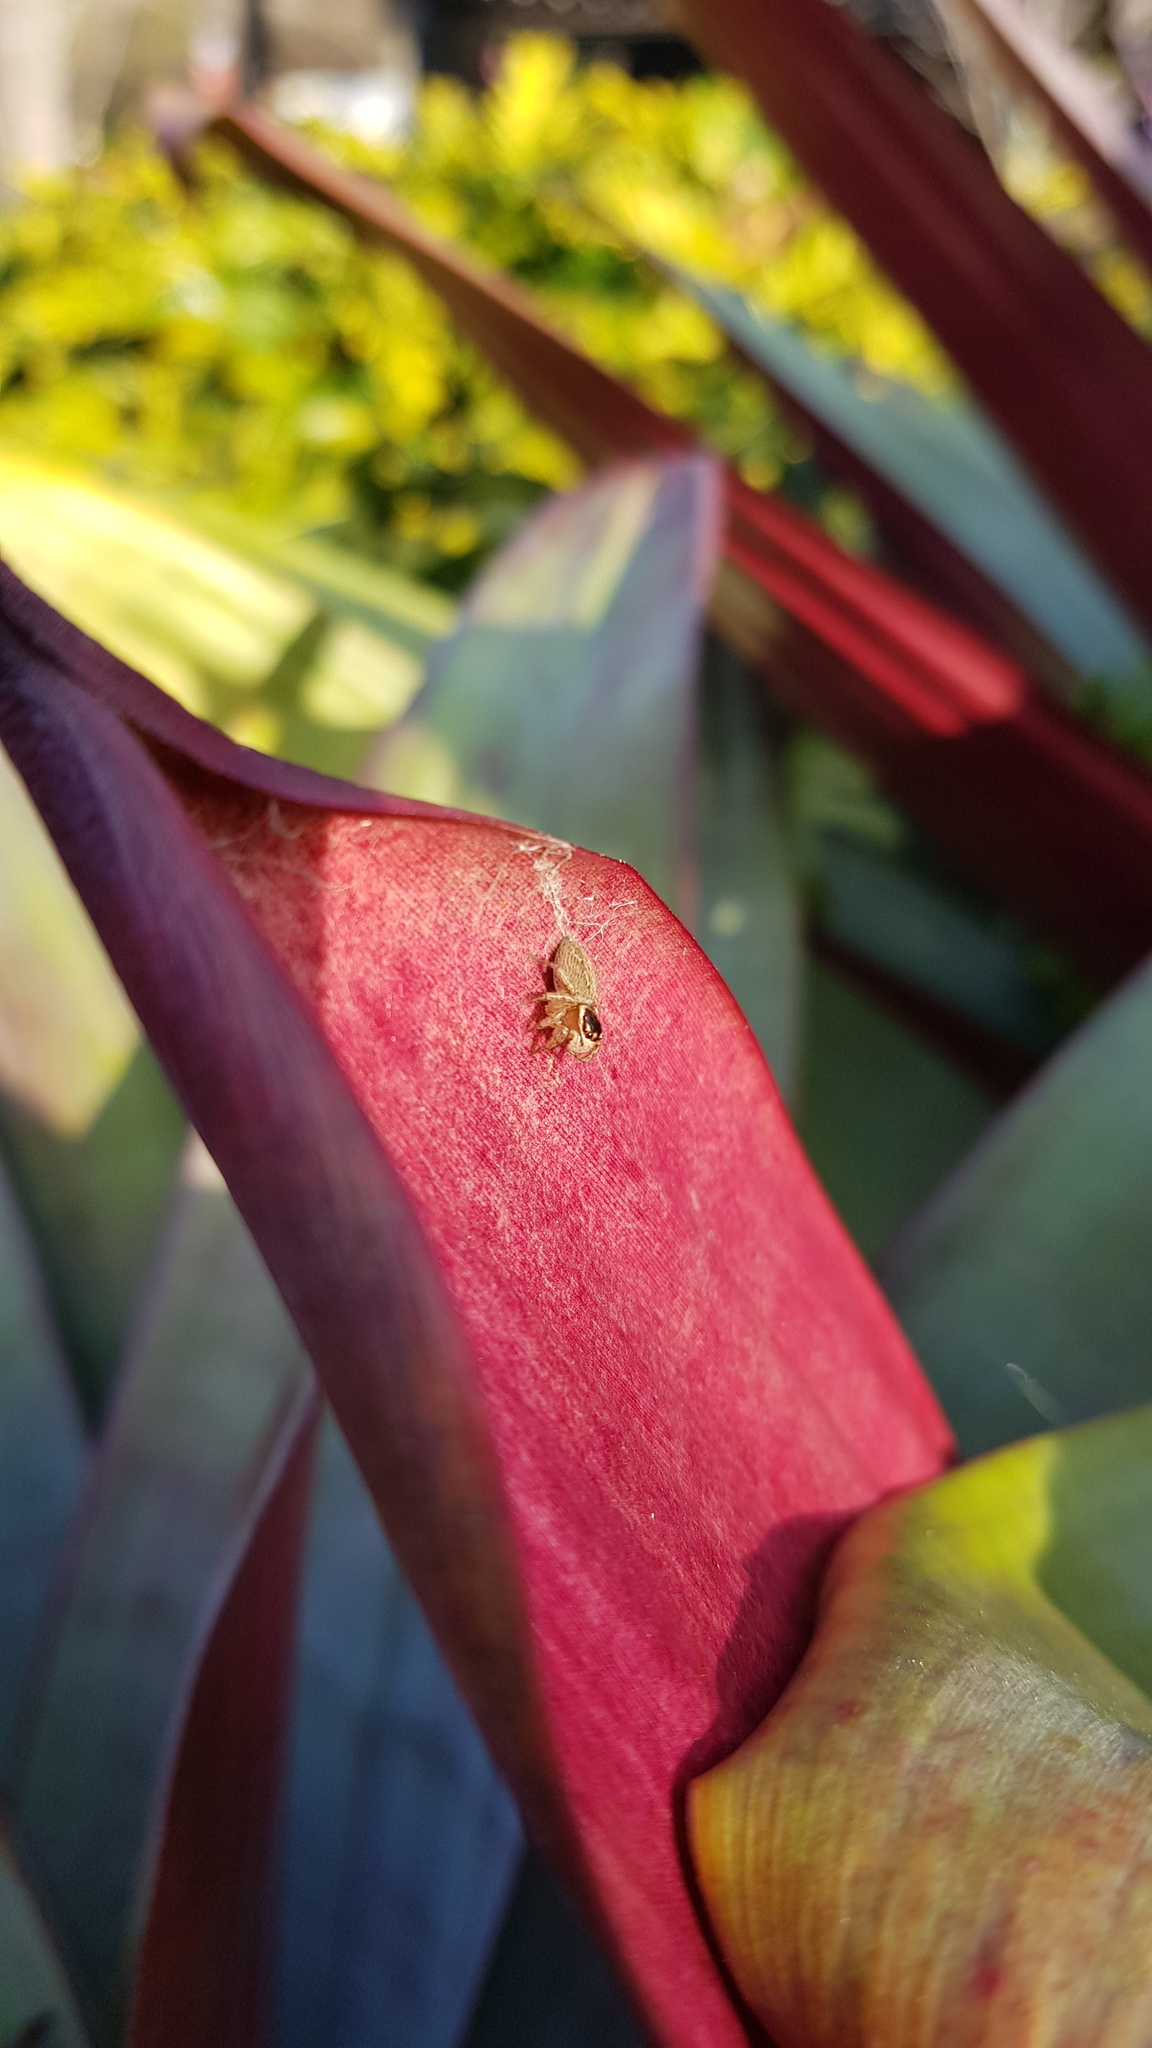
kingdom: Animalia
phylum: Arthropoda
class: Arachnida
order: Araneae
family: Salticidae
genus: Maratus
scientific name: Maratus griseus
